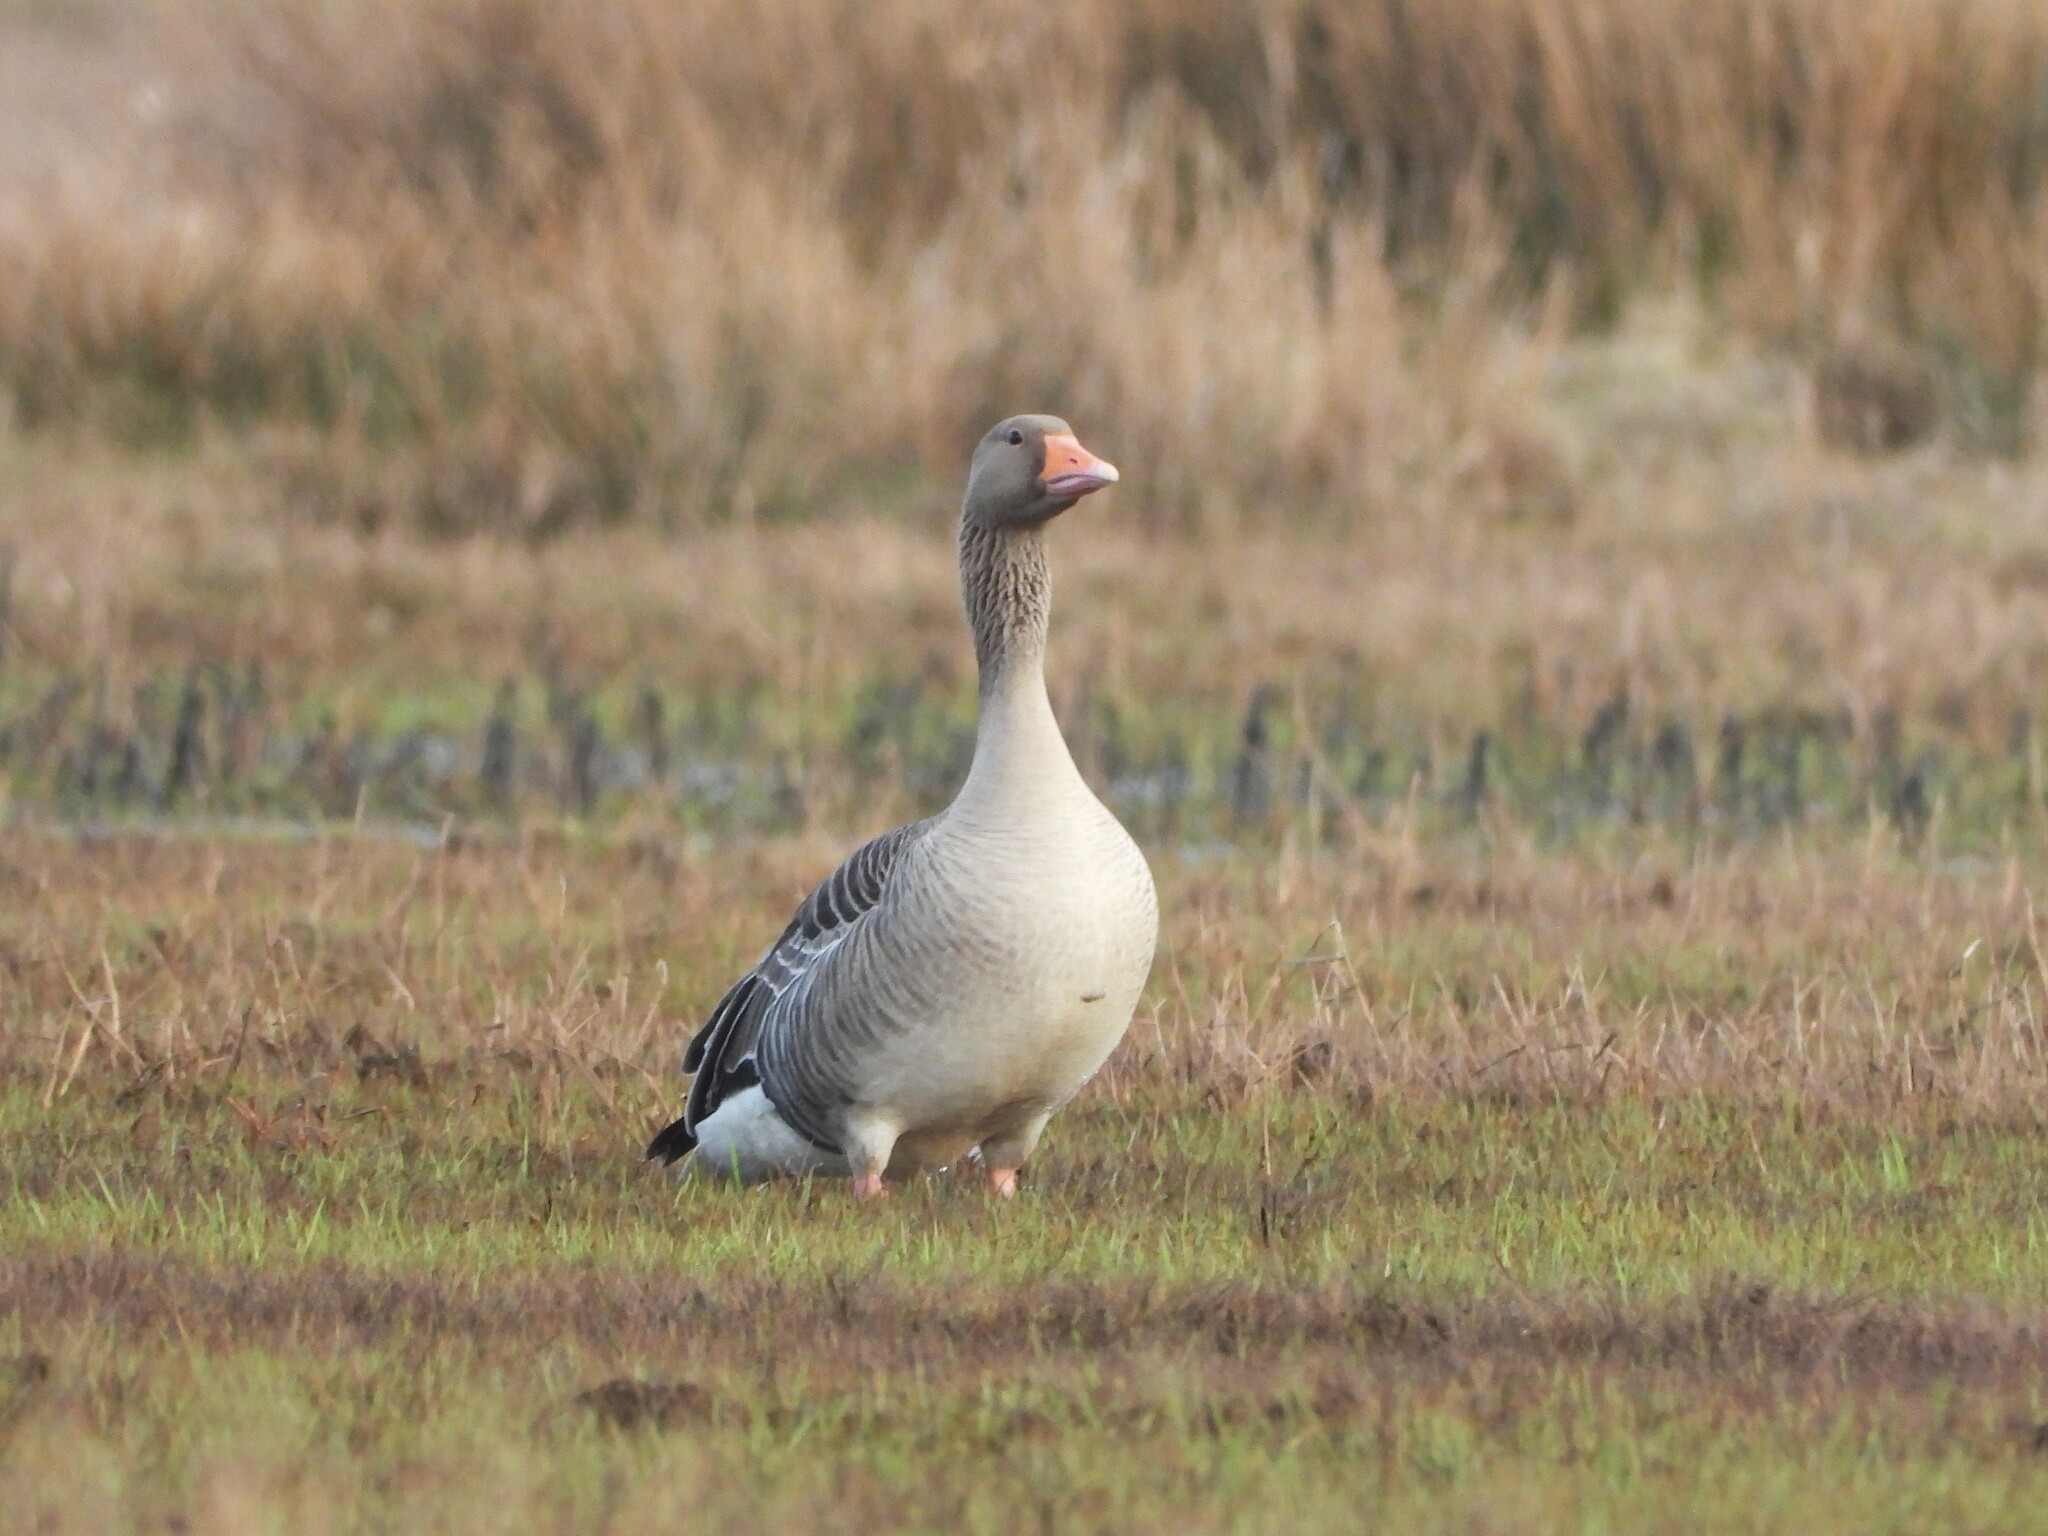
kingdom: Animalia
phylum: Chordata
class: Aves
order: Anseriformes
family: Anatidae
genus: Anser
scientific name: Anser anser
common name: Greylag goose
